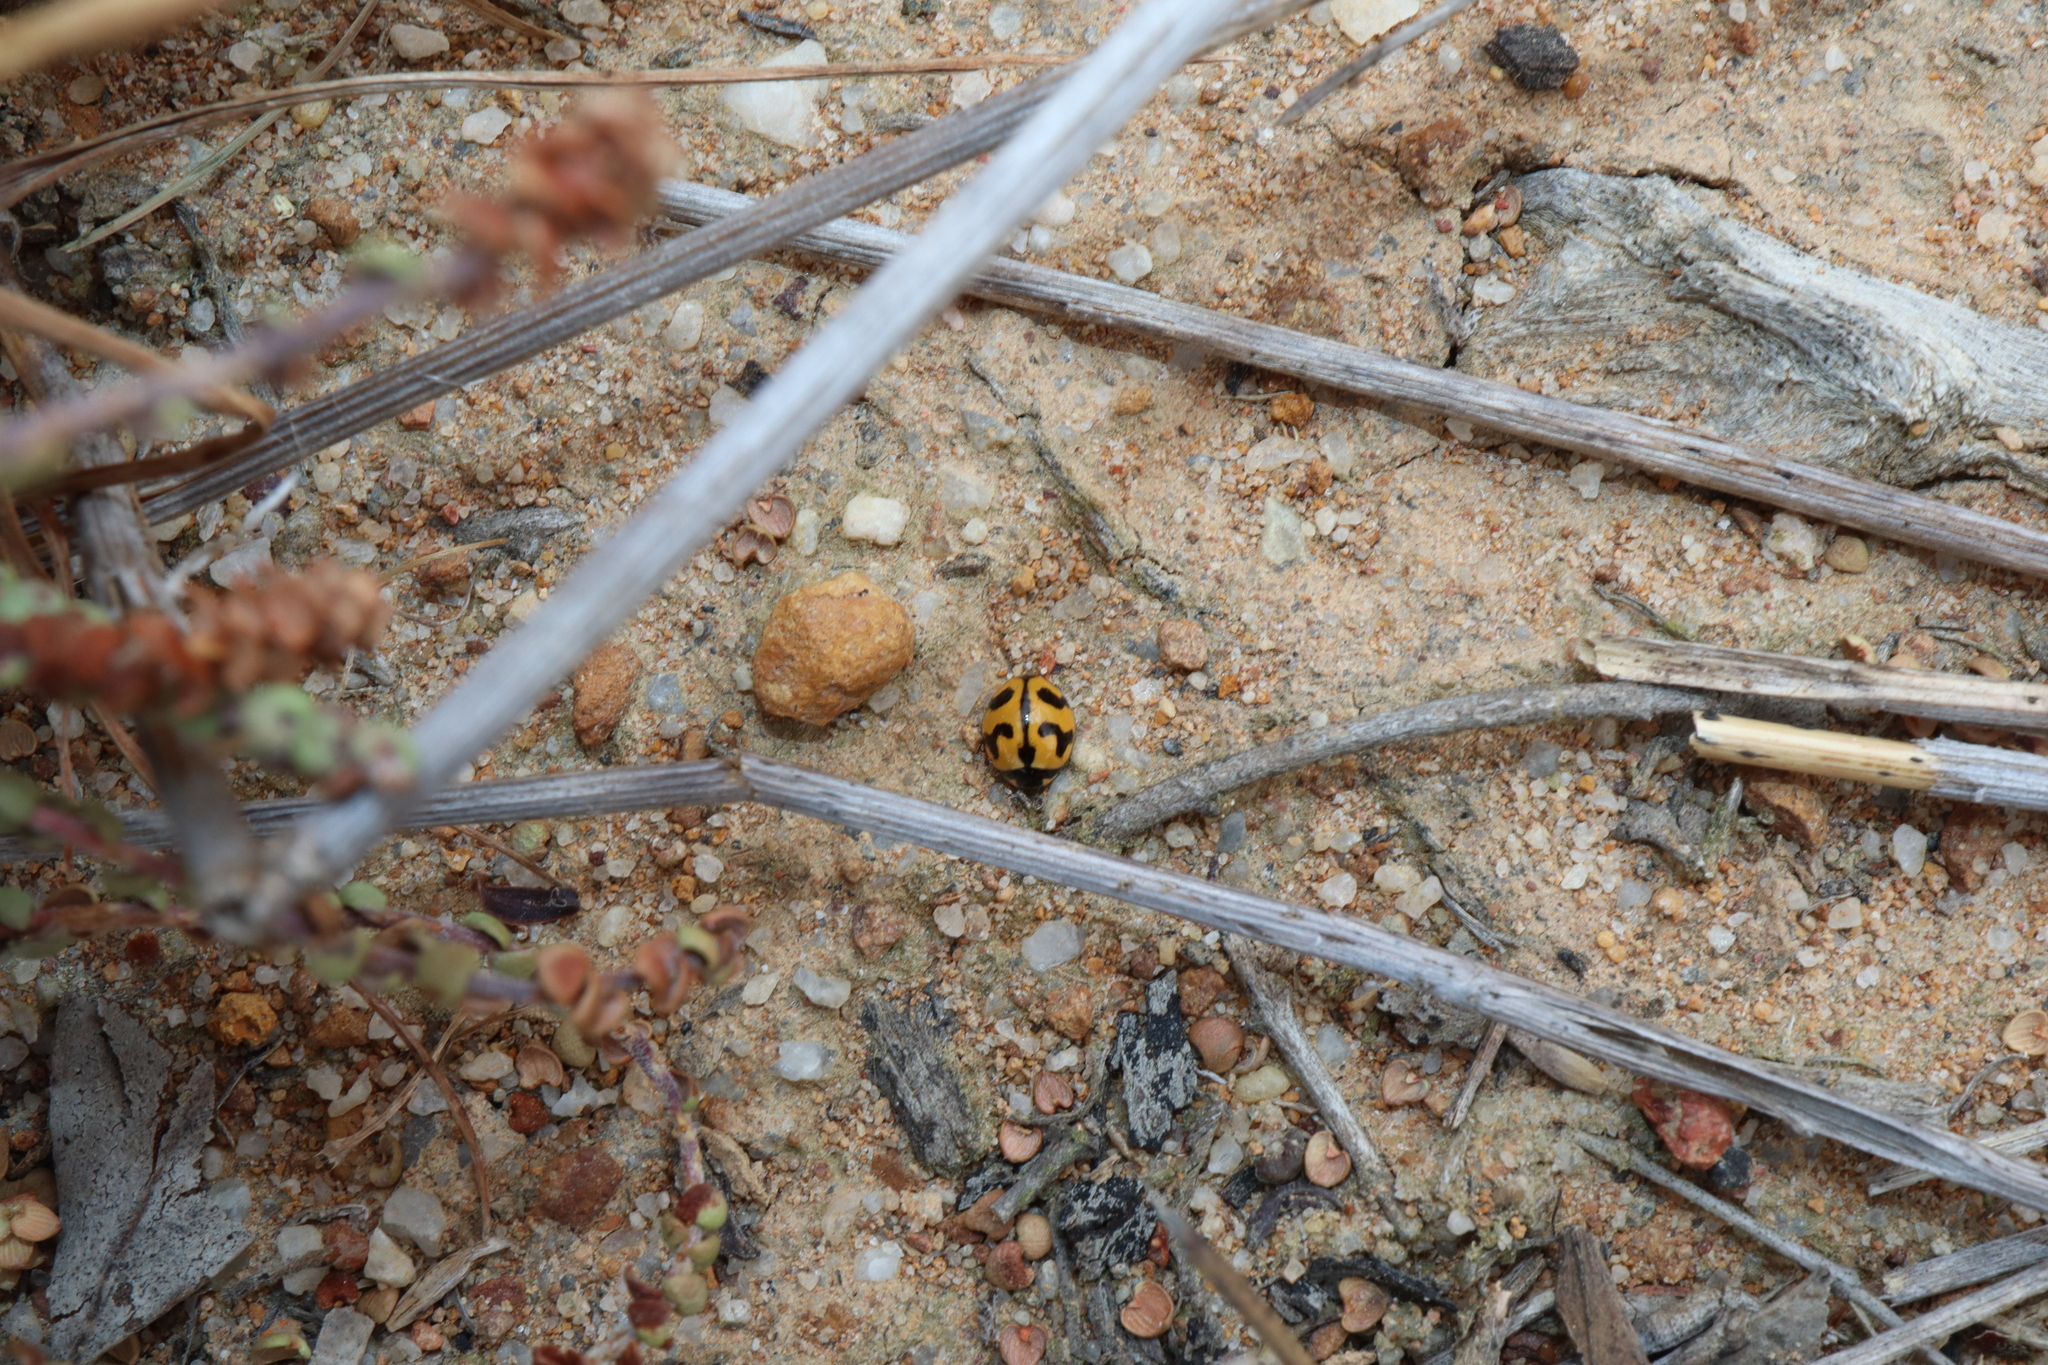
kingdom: Animalia
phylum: Arthropoda
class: Insecta
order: Coleoptera
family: Coccinellidae
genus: Coccinella
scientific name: Coccinella transversalis
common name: Transverse lady beetle
